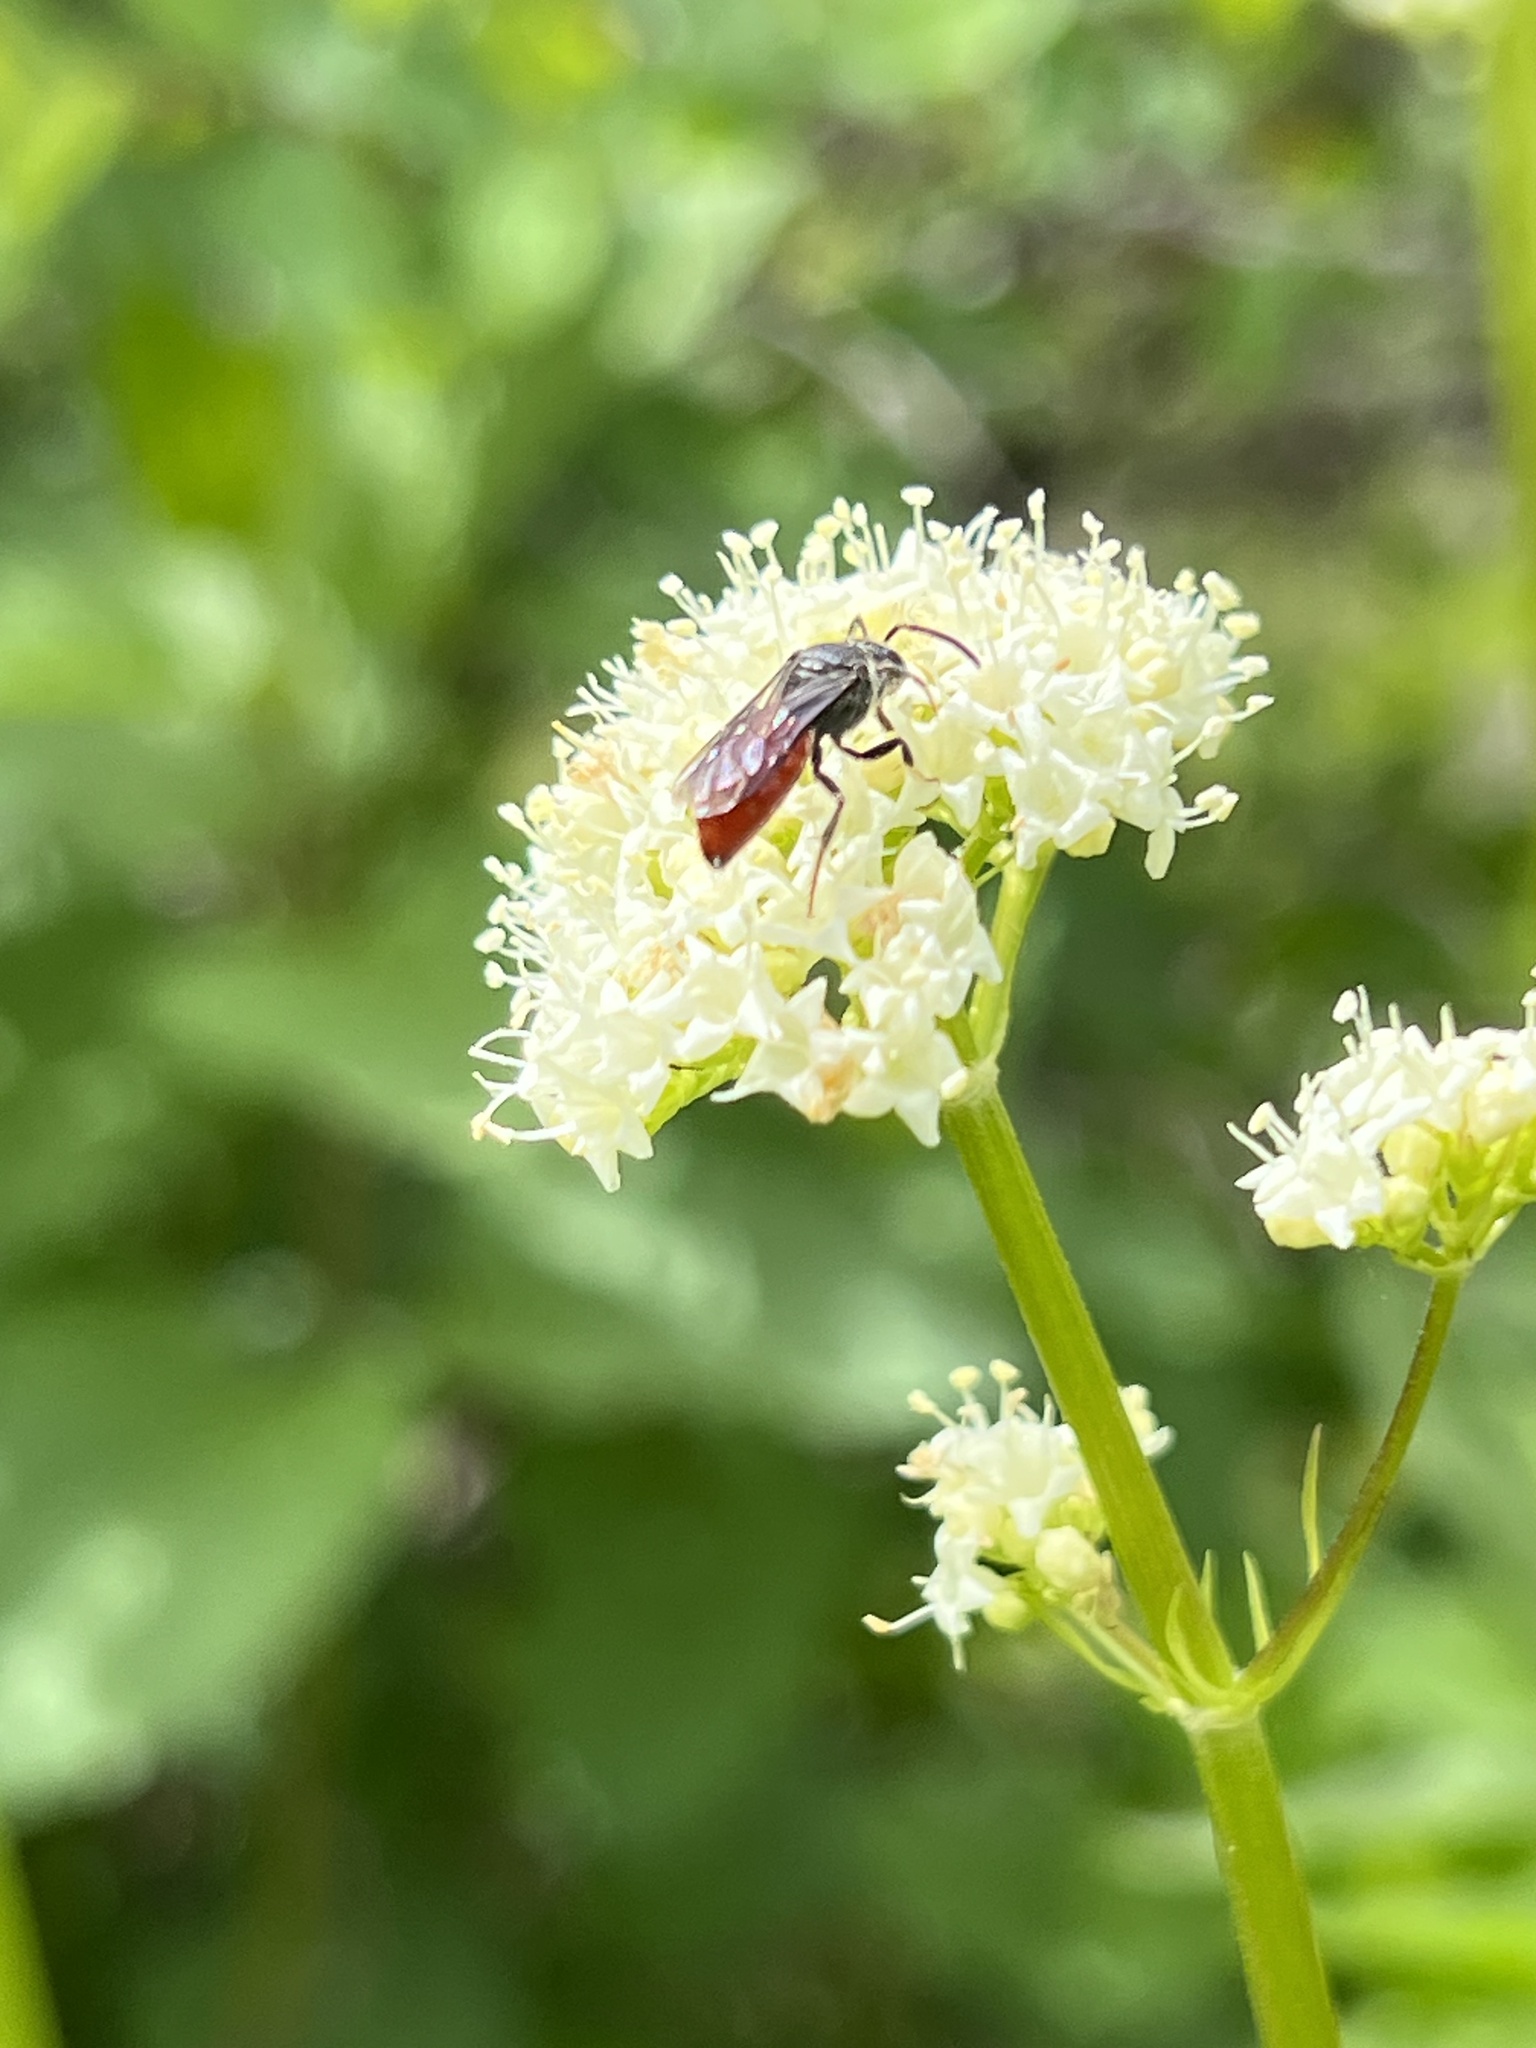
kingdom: Animalia
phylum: Arthropoda
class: Insecta
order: Hymenoptera
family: Halictidae
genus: Sphecodes
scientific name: Sphecodes
